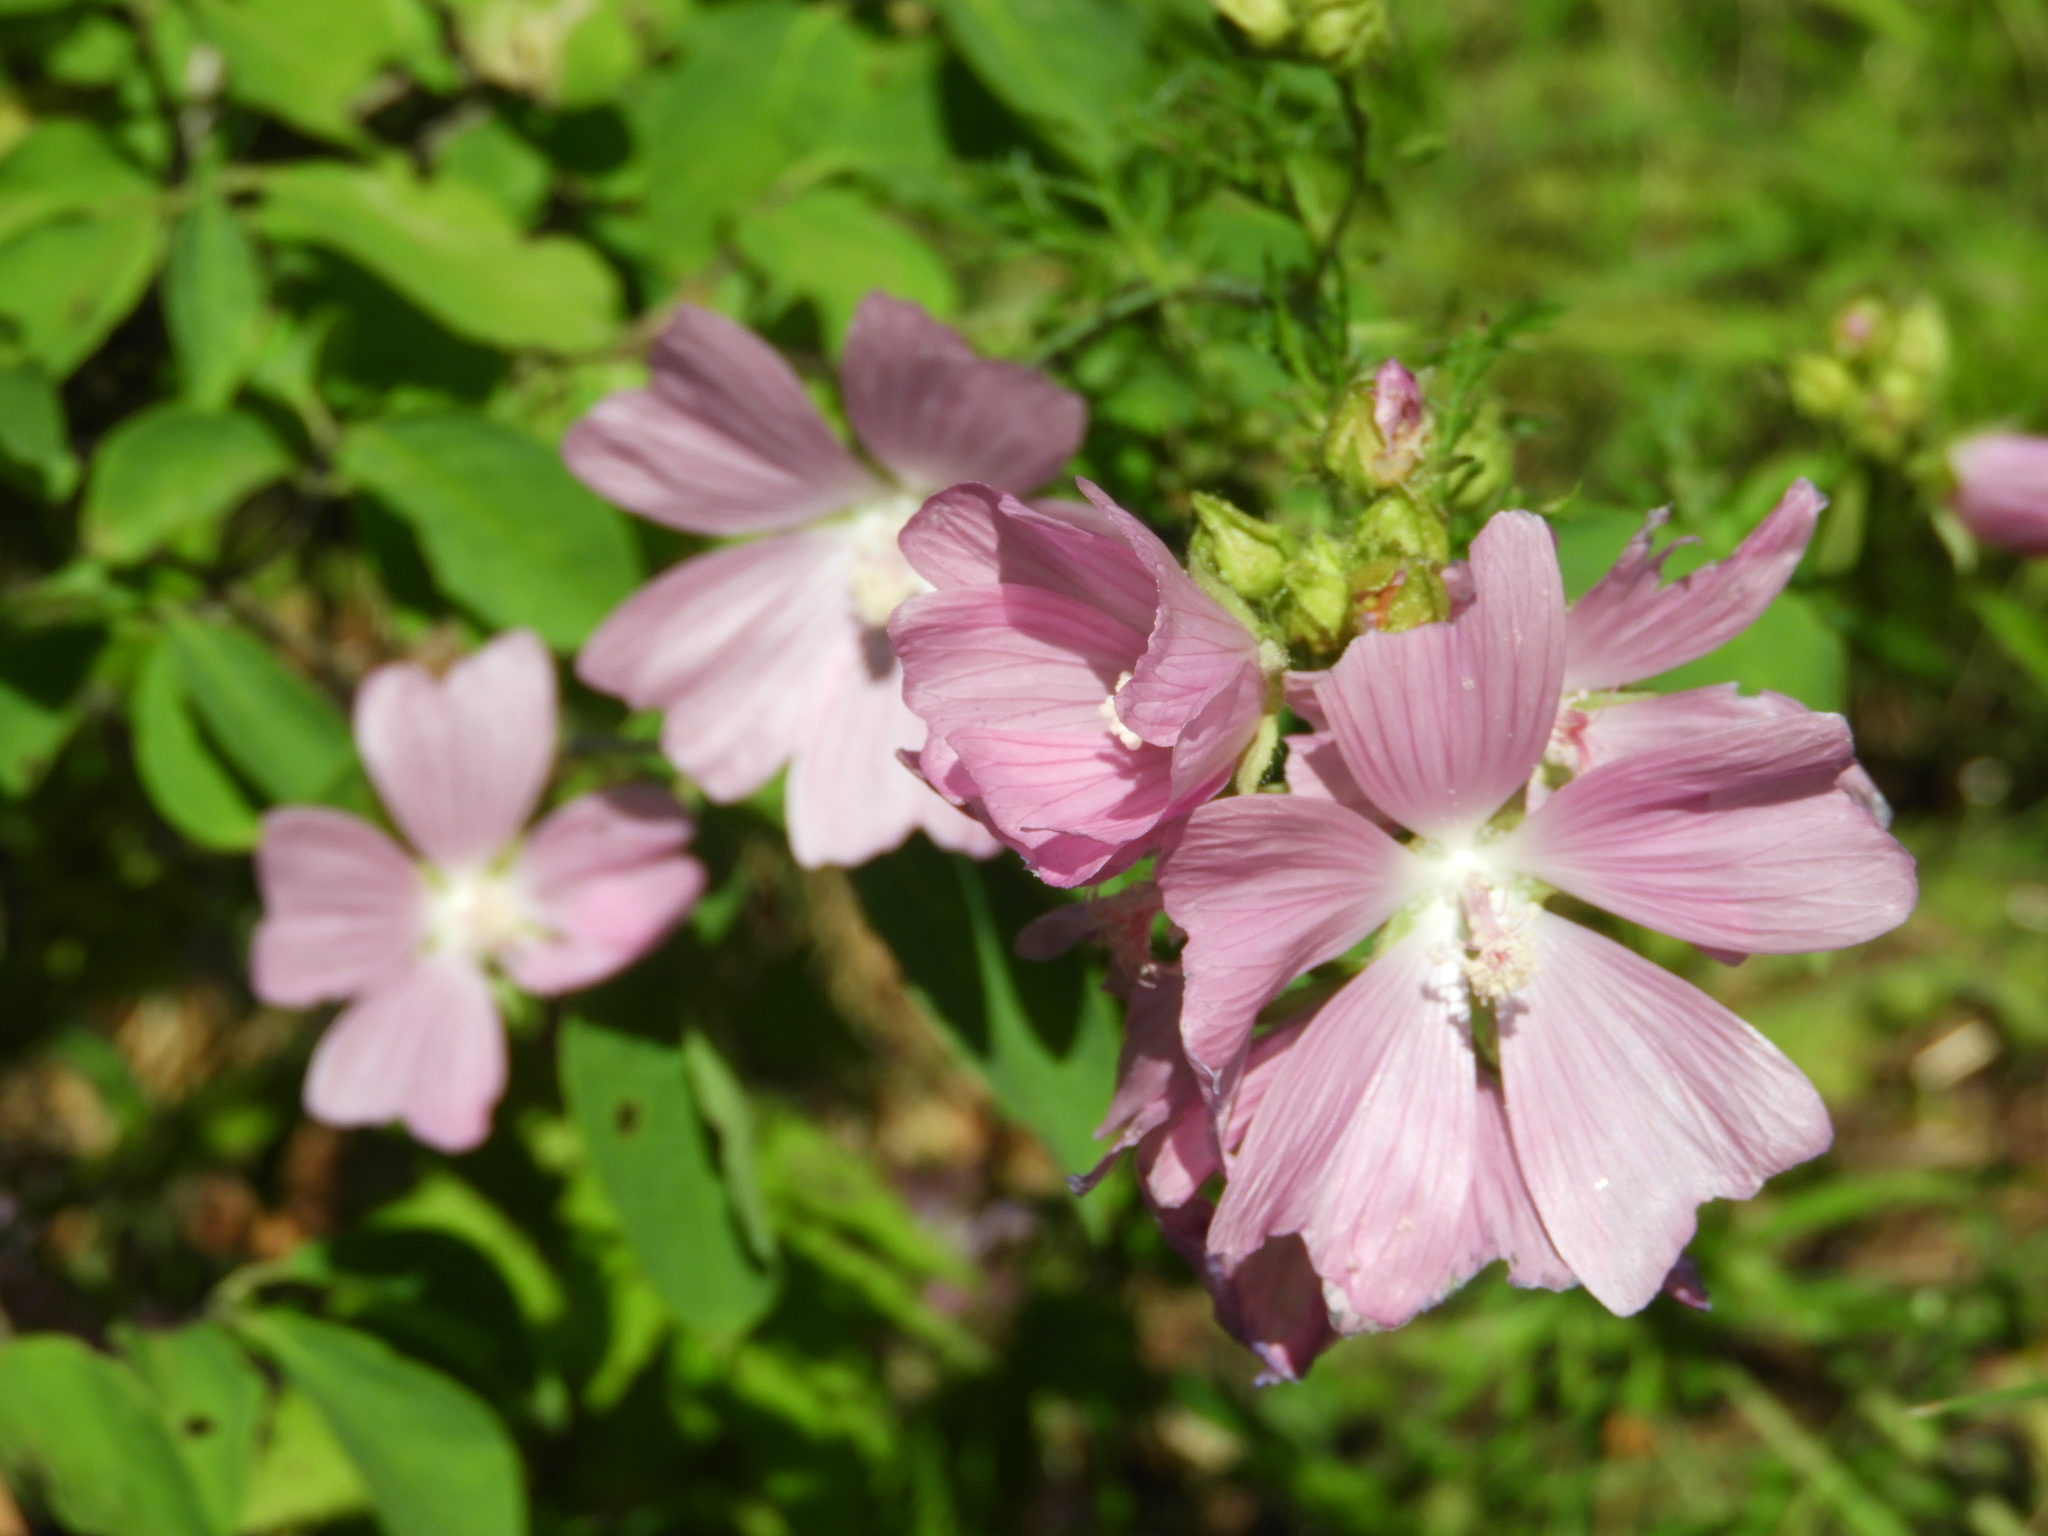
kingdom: Plantae
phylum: Tracheophyta
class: Magnoliopsida
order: Malvales
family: Malvaceae
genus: Malva
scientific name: Malva thuringiaca
